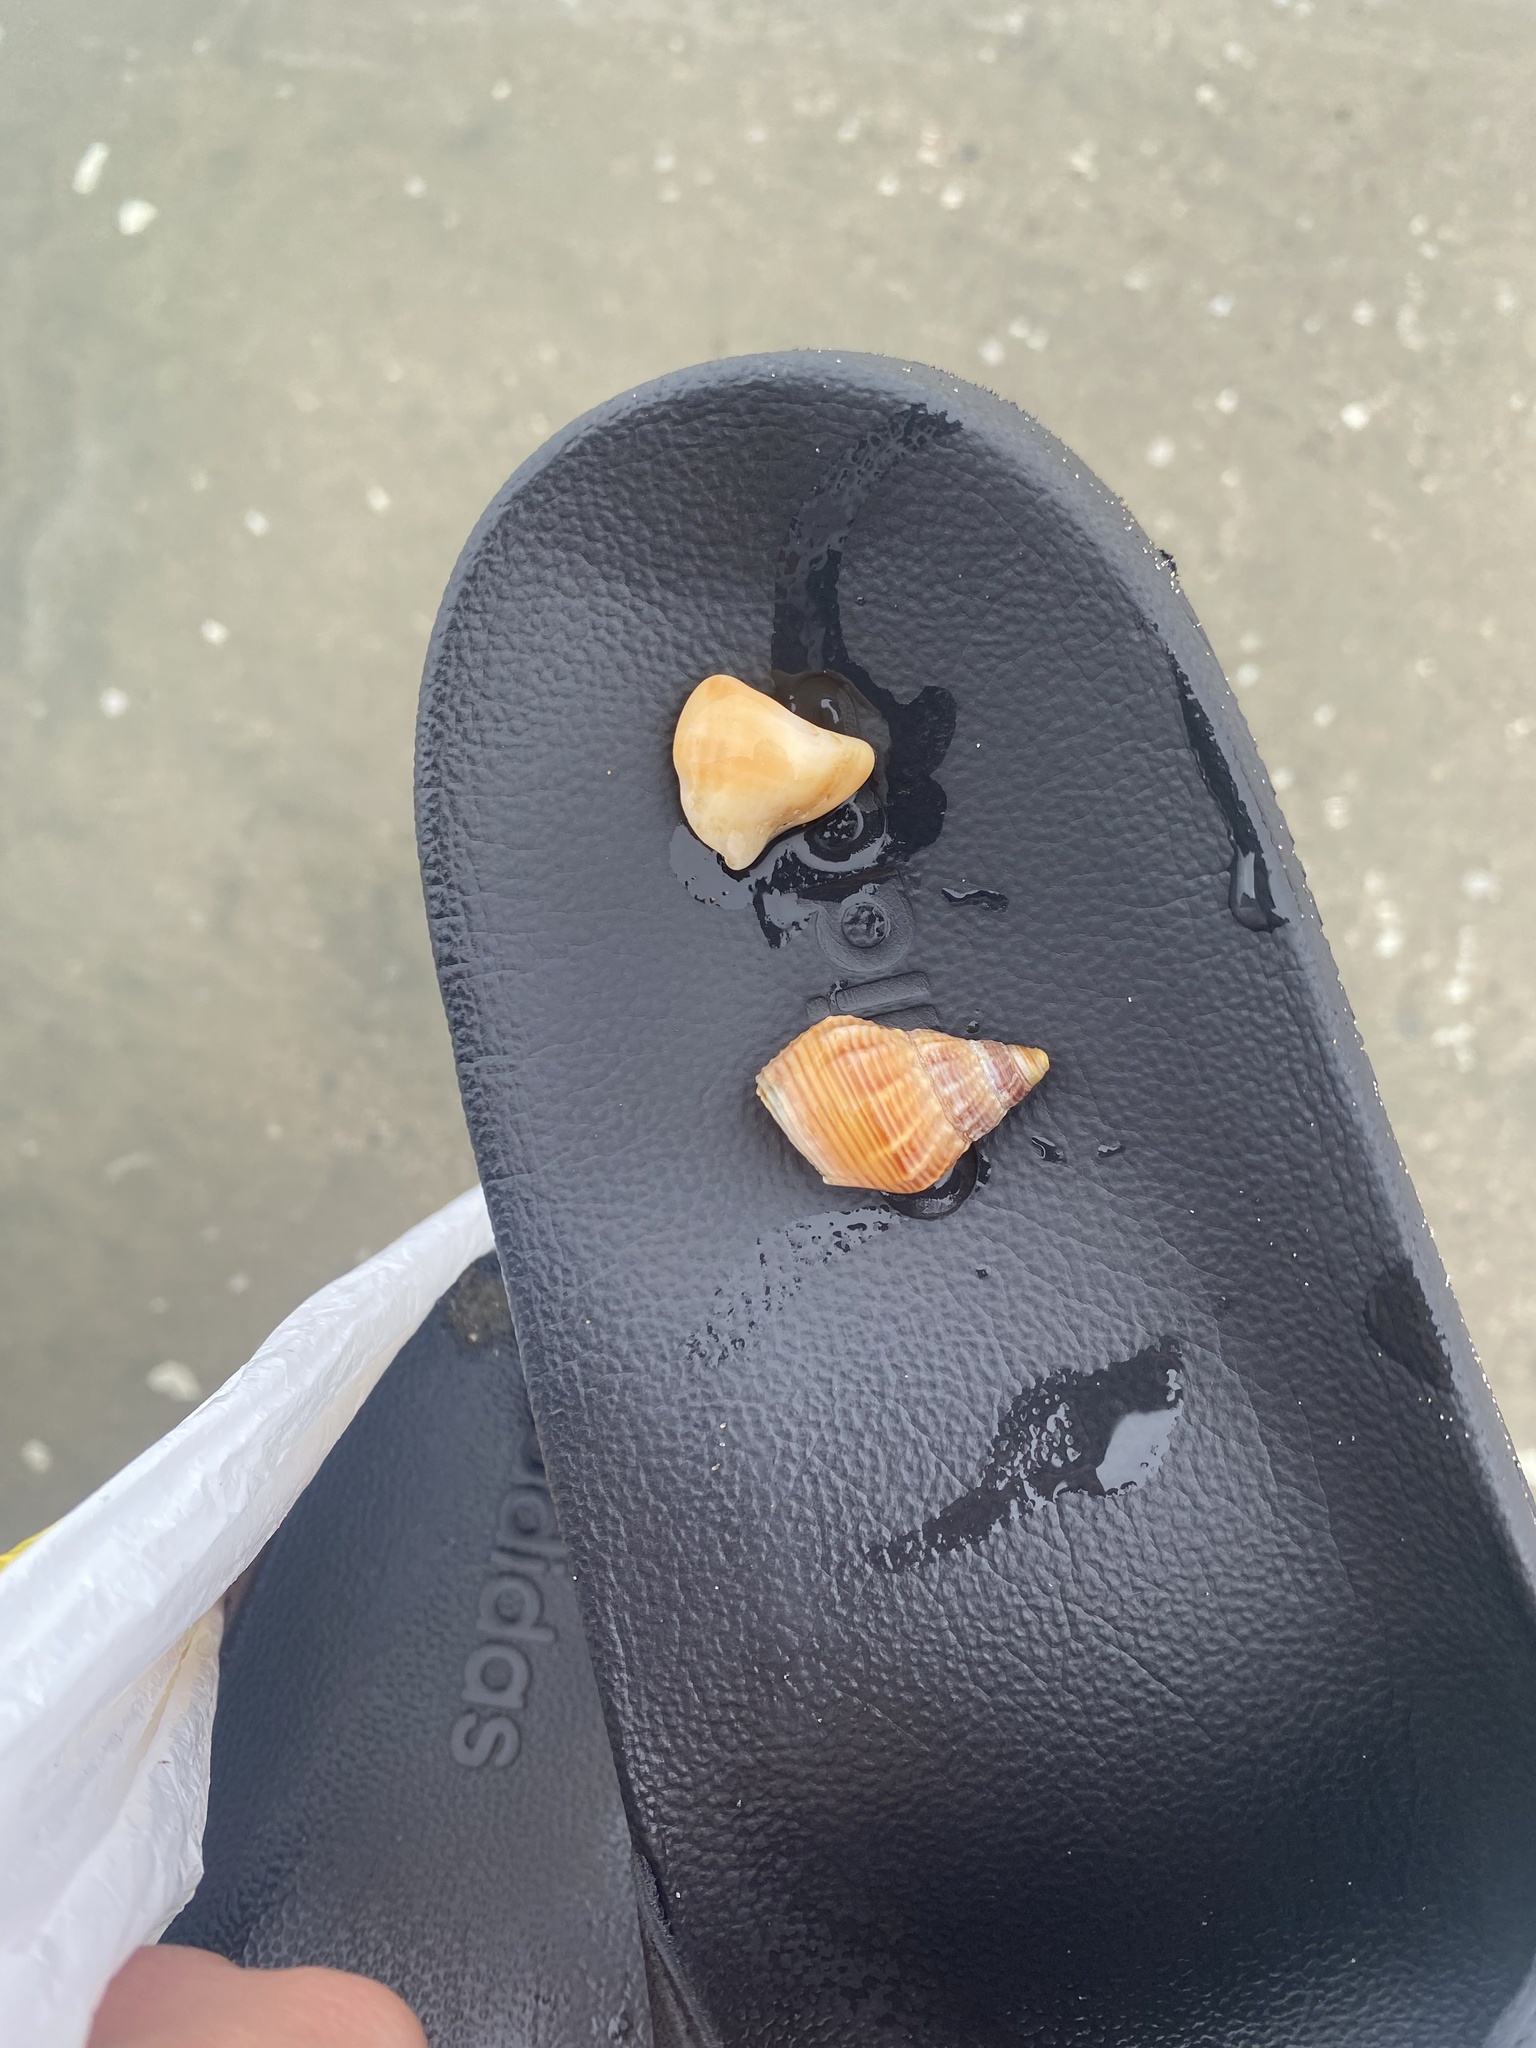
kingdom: Animalia
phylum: Mollusca
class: Gastropoda
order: Neogastropoda
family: Muricidae
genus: Nucella
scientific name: Nucella lamellosa
